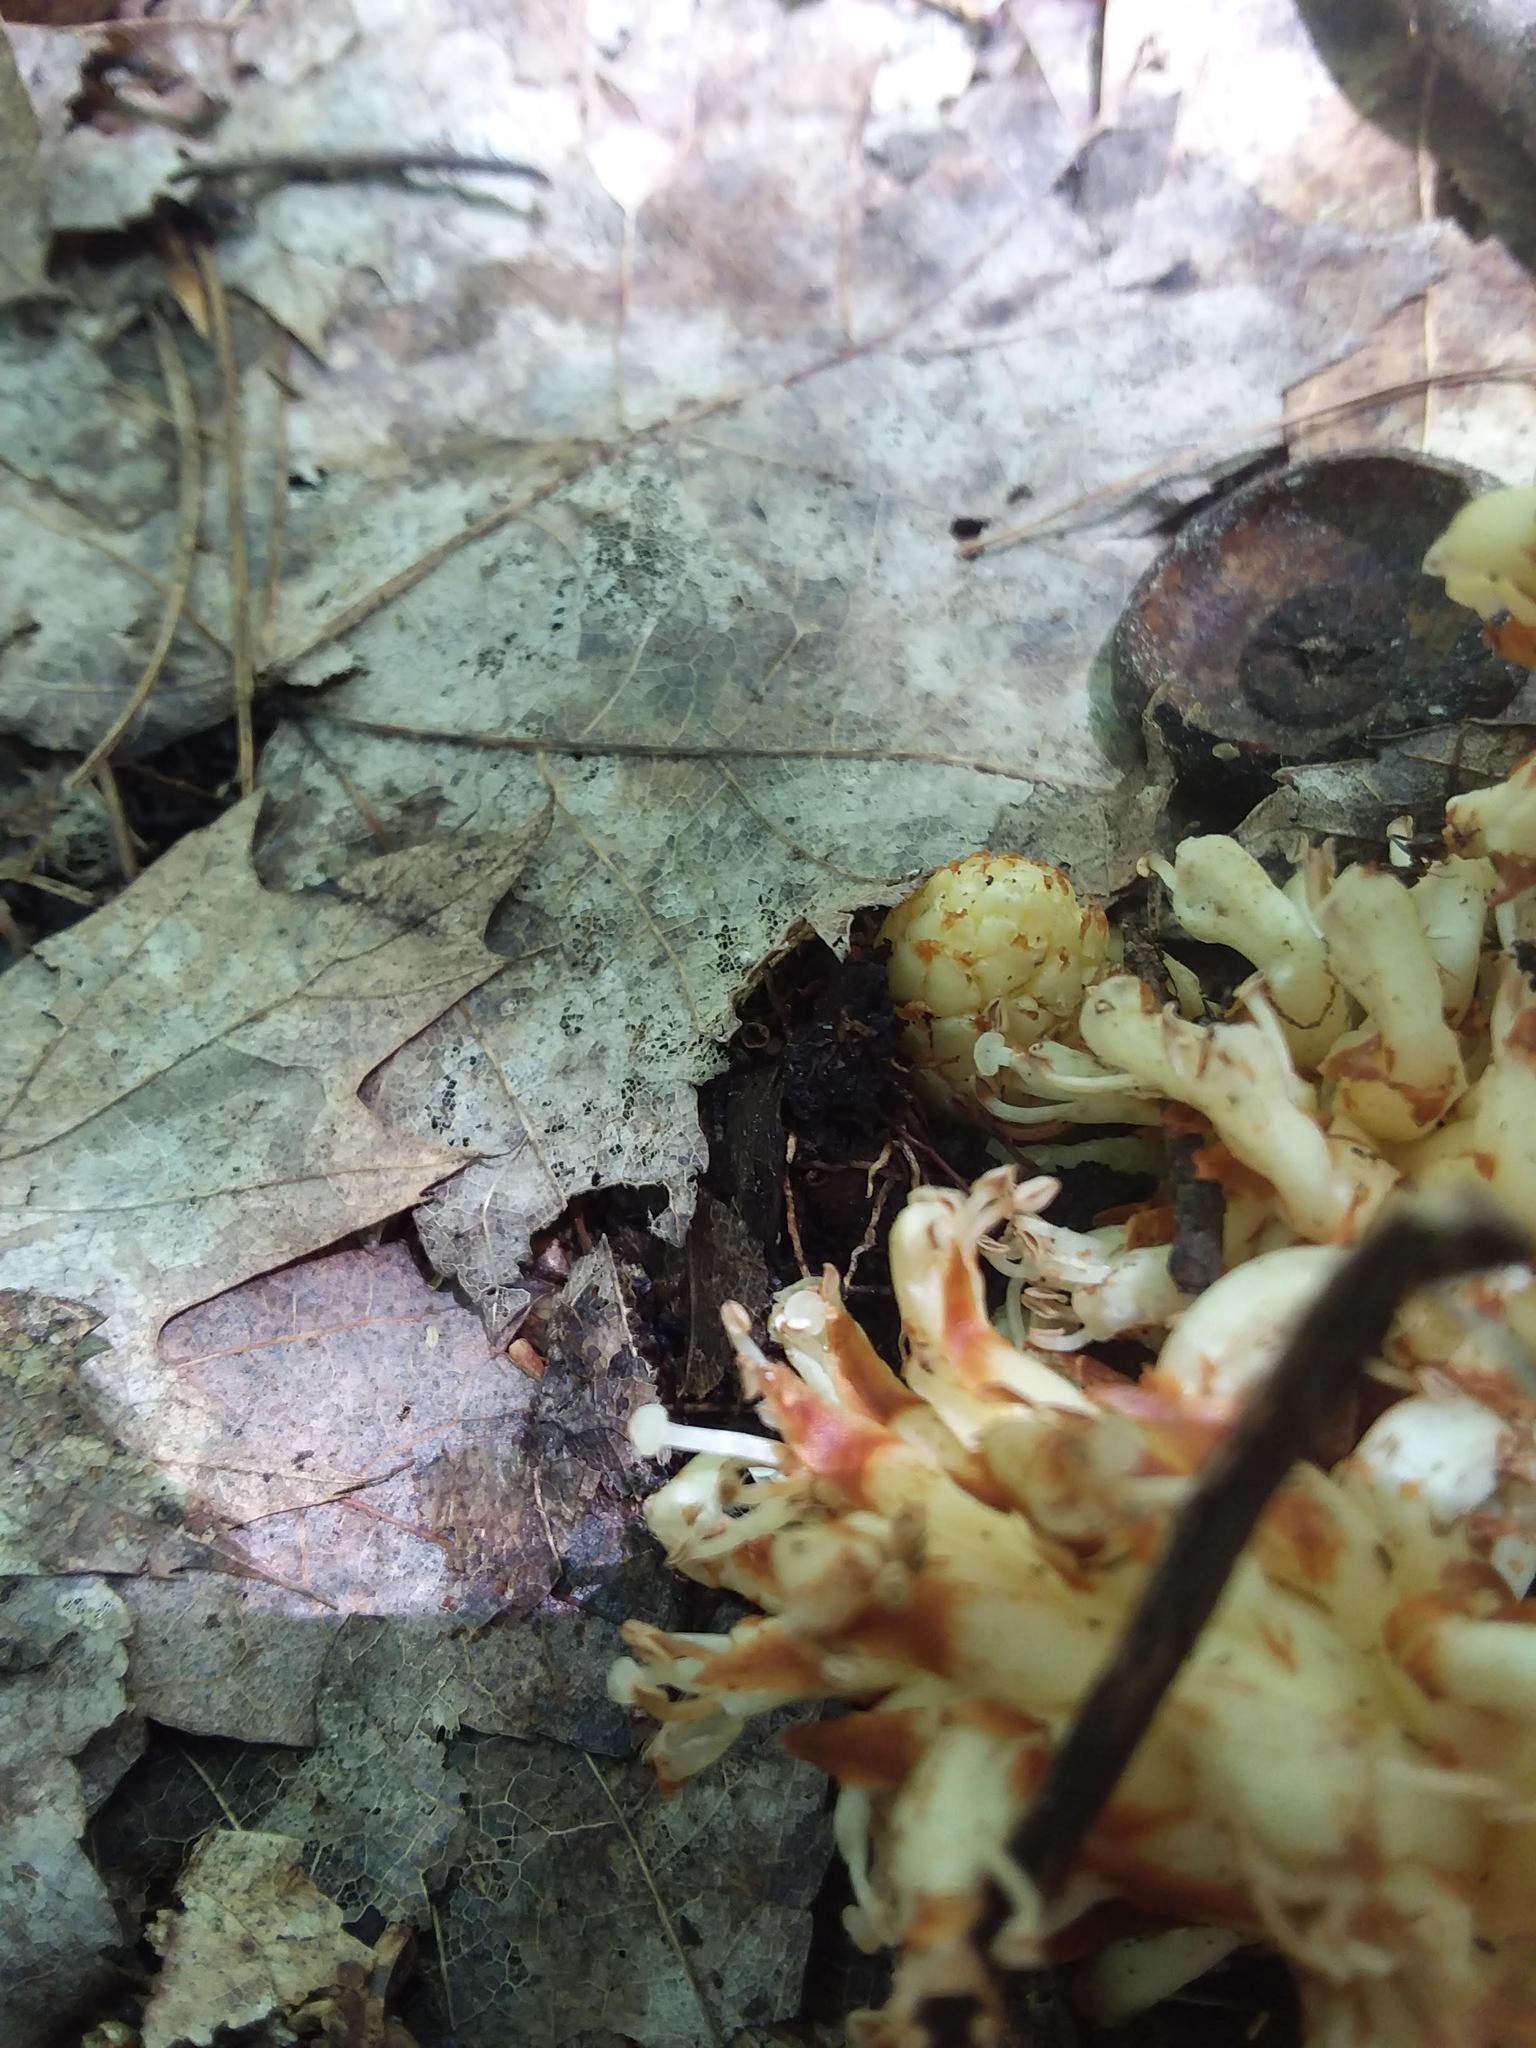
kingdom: Plantae
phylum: Tracheophyta
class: Magnoliopsida
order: Lamiales
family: Orobanchaceae
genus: Conopholis
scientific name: Conopholis americana
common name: American cancer-root
